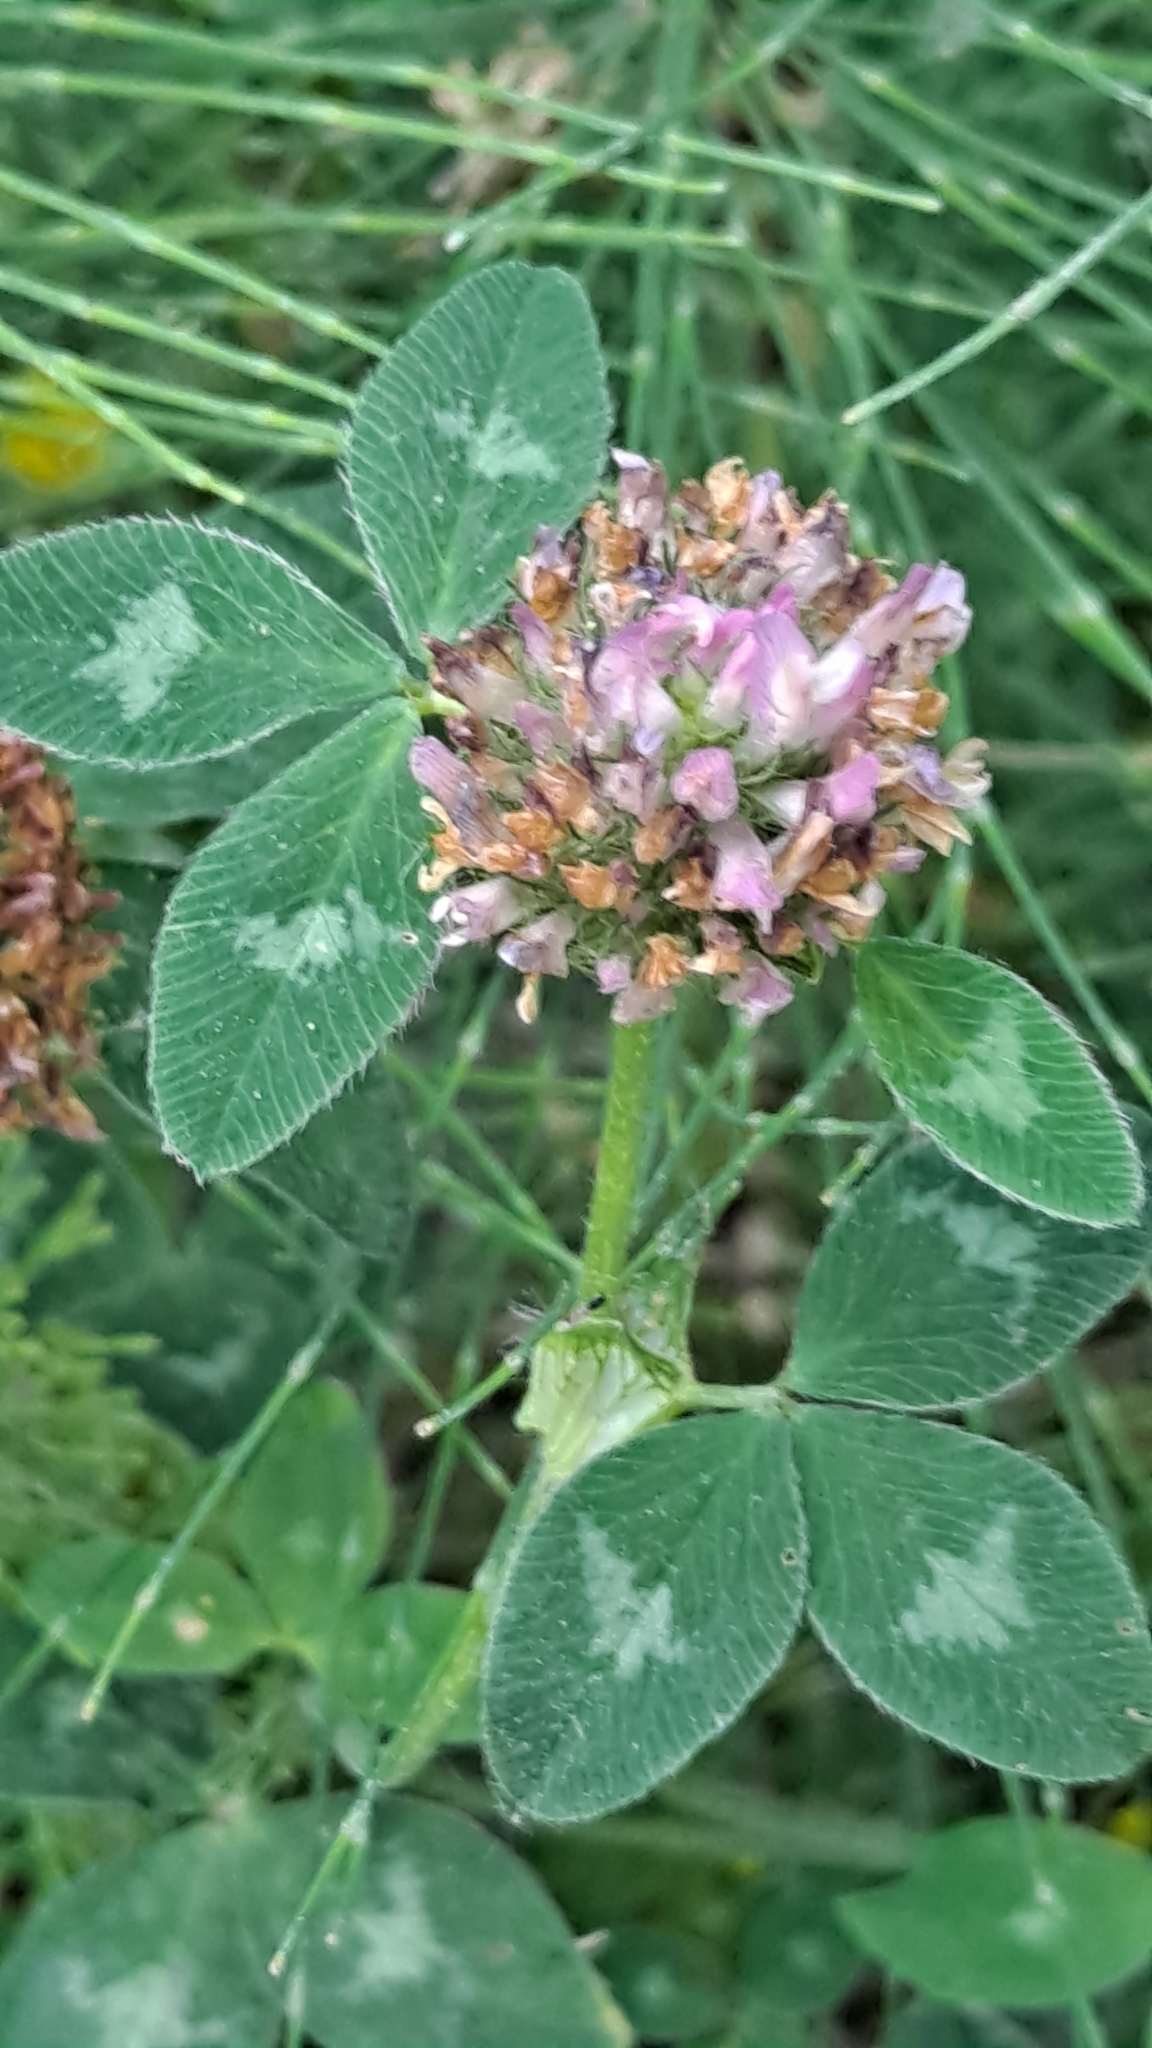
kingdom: Plantae
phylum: Tracheophyta
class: Magnoliopsida
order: Fabales
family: Fabaceae
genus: Trifolium
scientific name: Trifolium pratense
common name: Red clover
